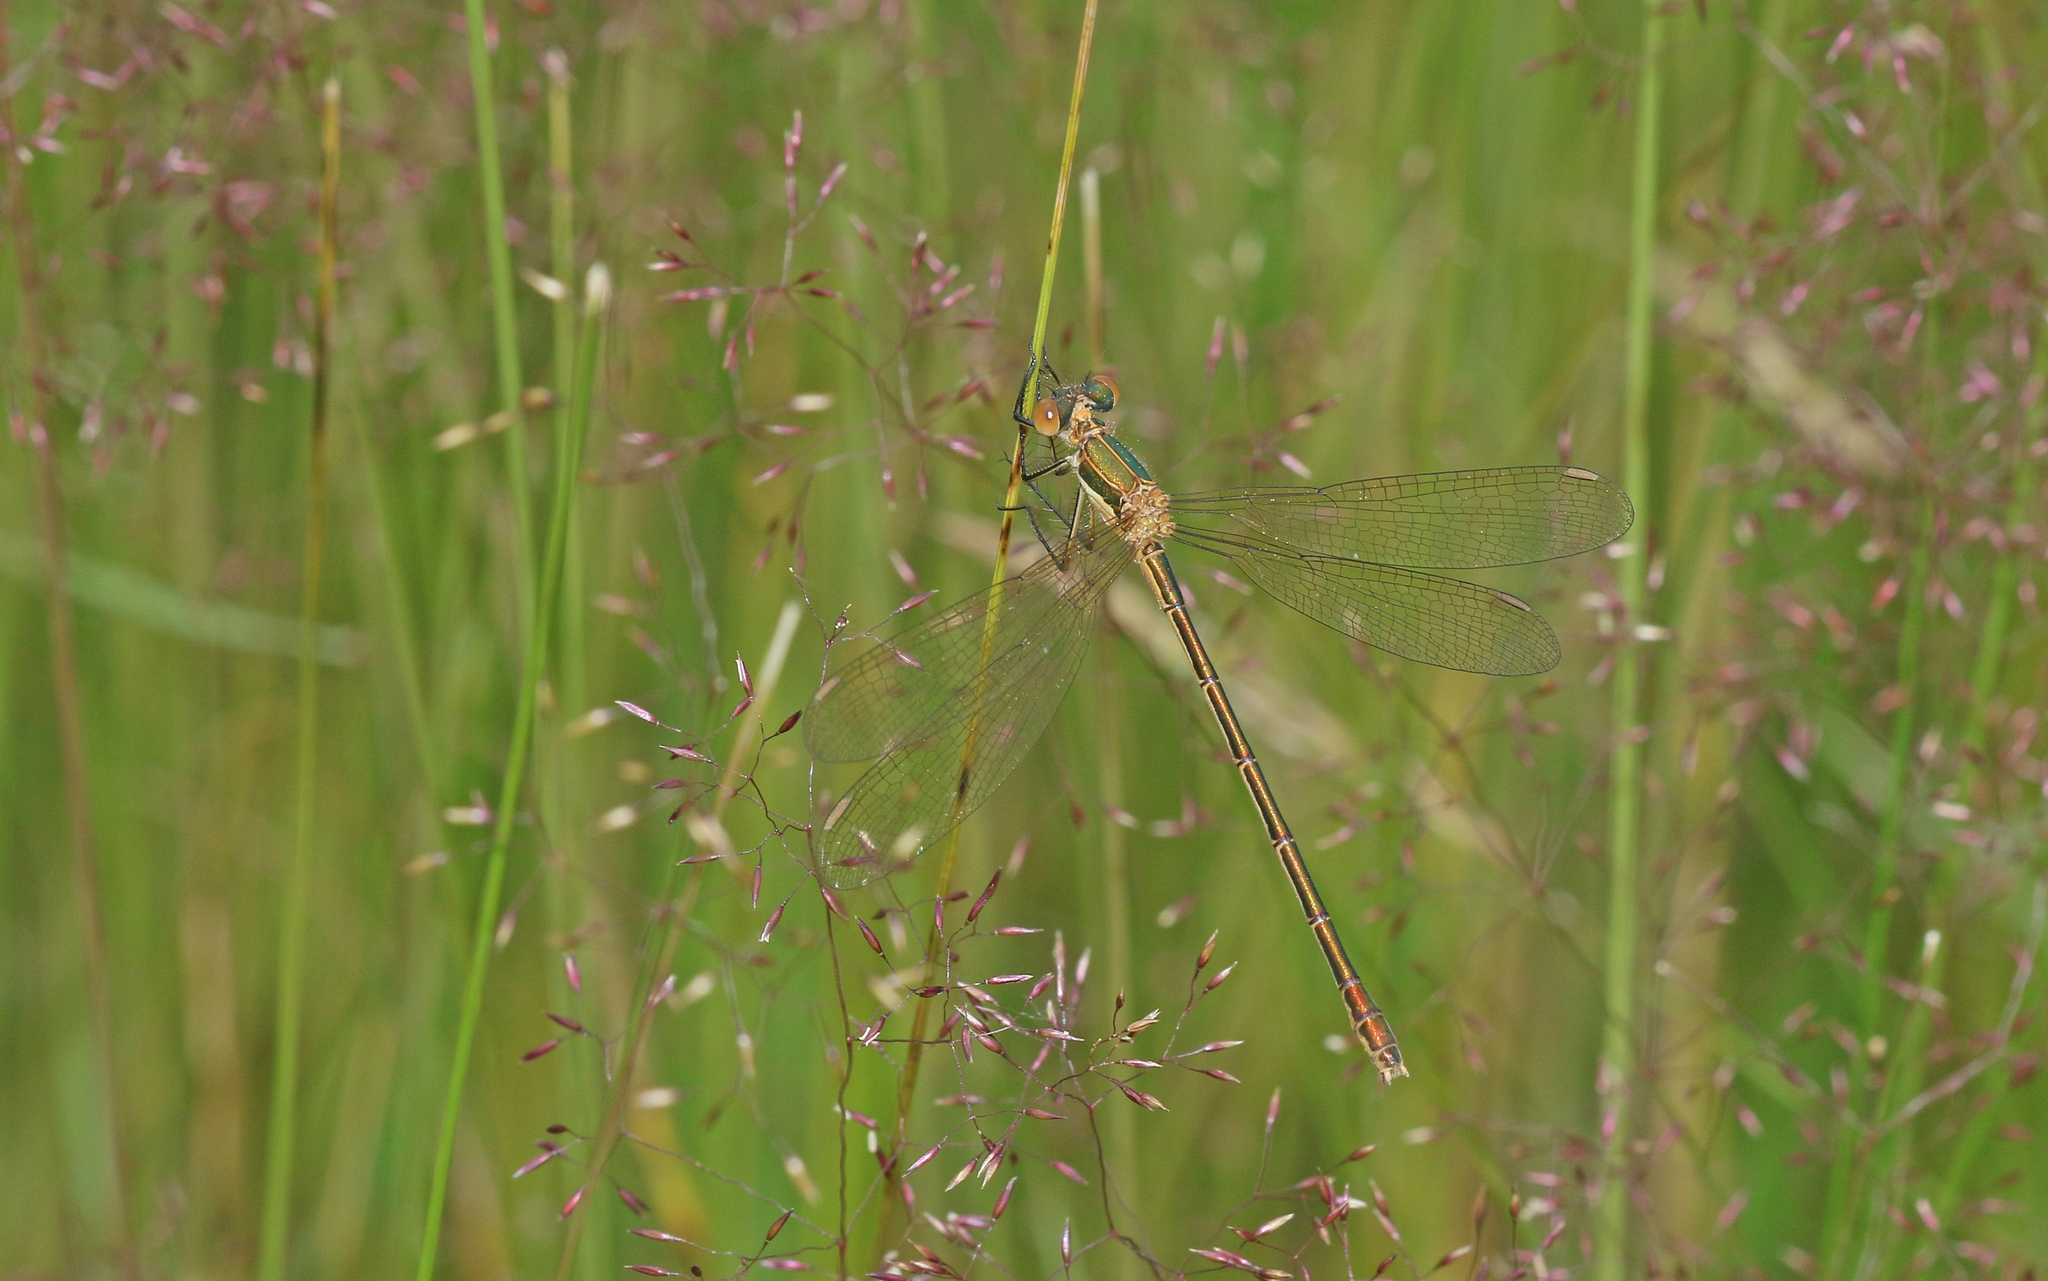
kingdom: Animalia
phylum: Arthropoda
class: Insecta
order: Odonata
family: Lestidae
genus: Lestes
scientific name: Lestes sponsa
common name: Common spreadwing
